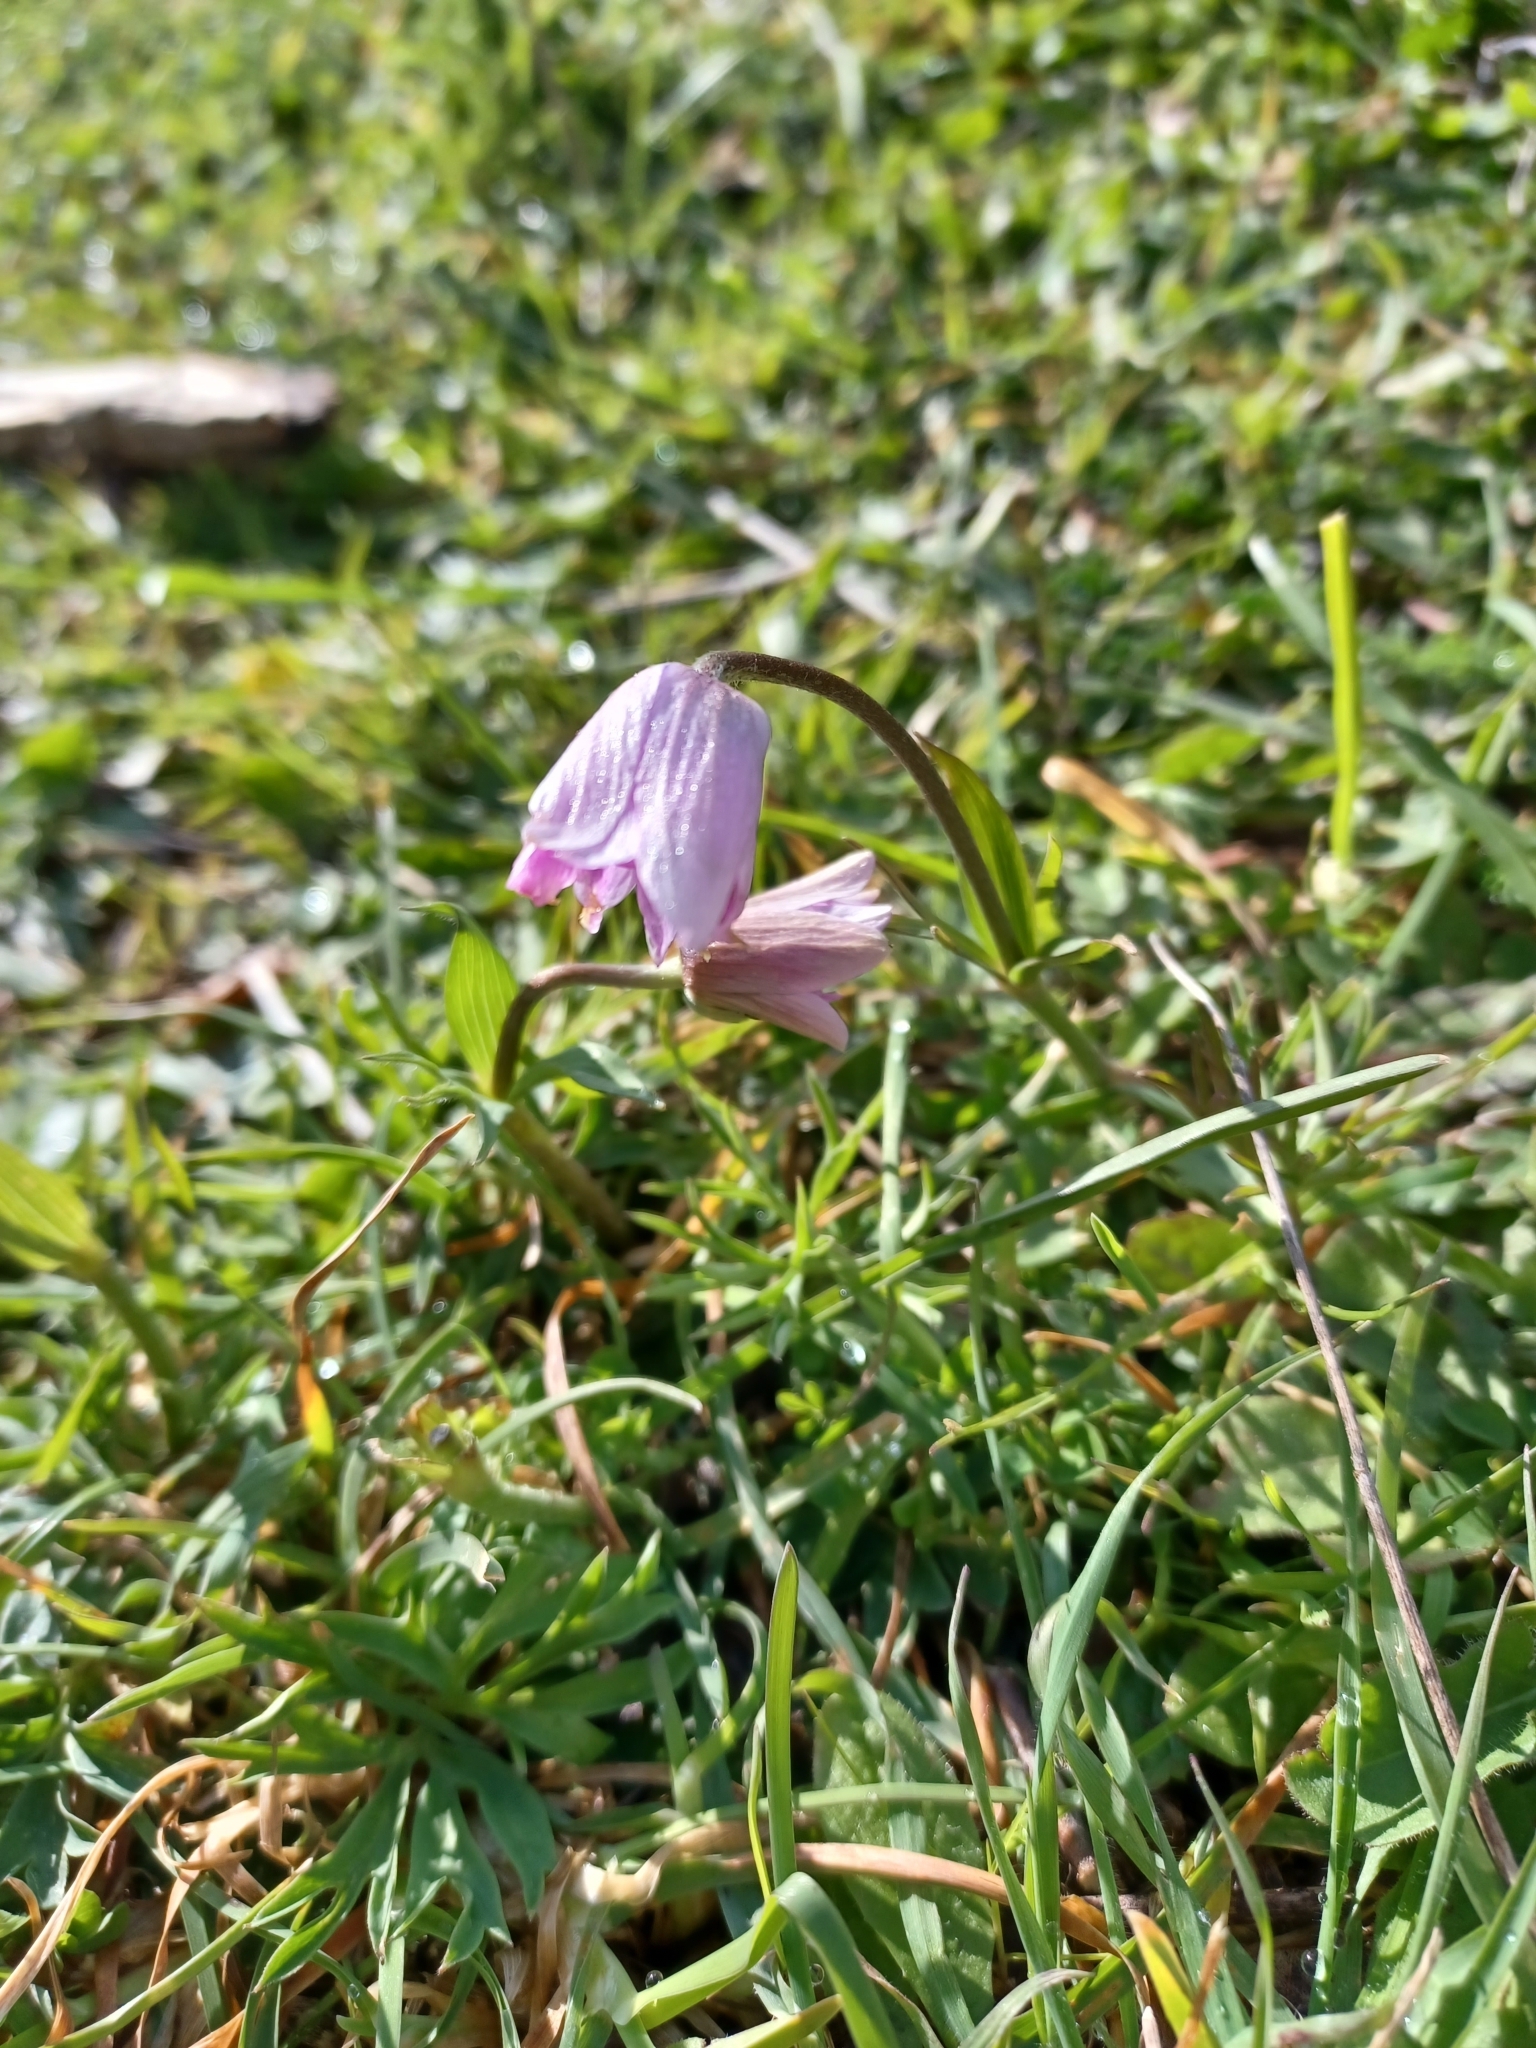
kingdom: Plantae
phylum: Tracheophyta
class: Magnoliopsida
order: Ranunculales
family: Ranunculaceae
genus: Anemone
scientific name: Anemone hortensis
